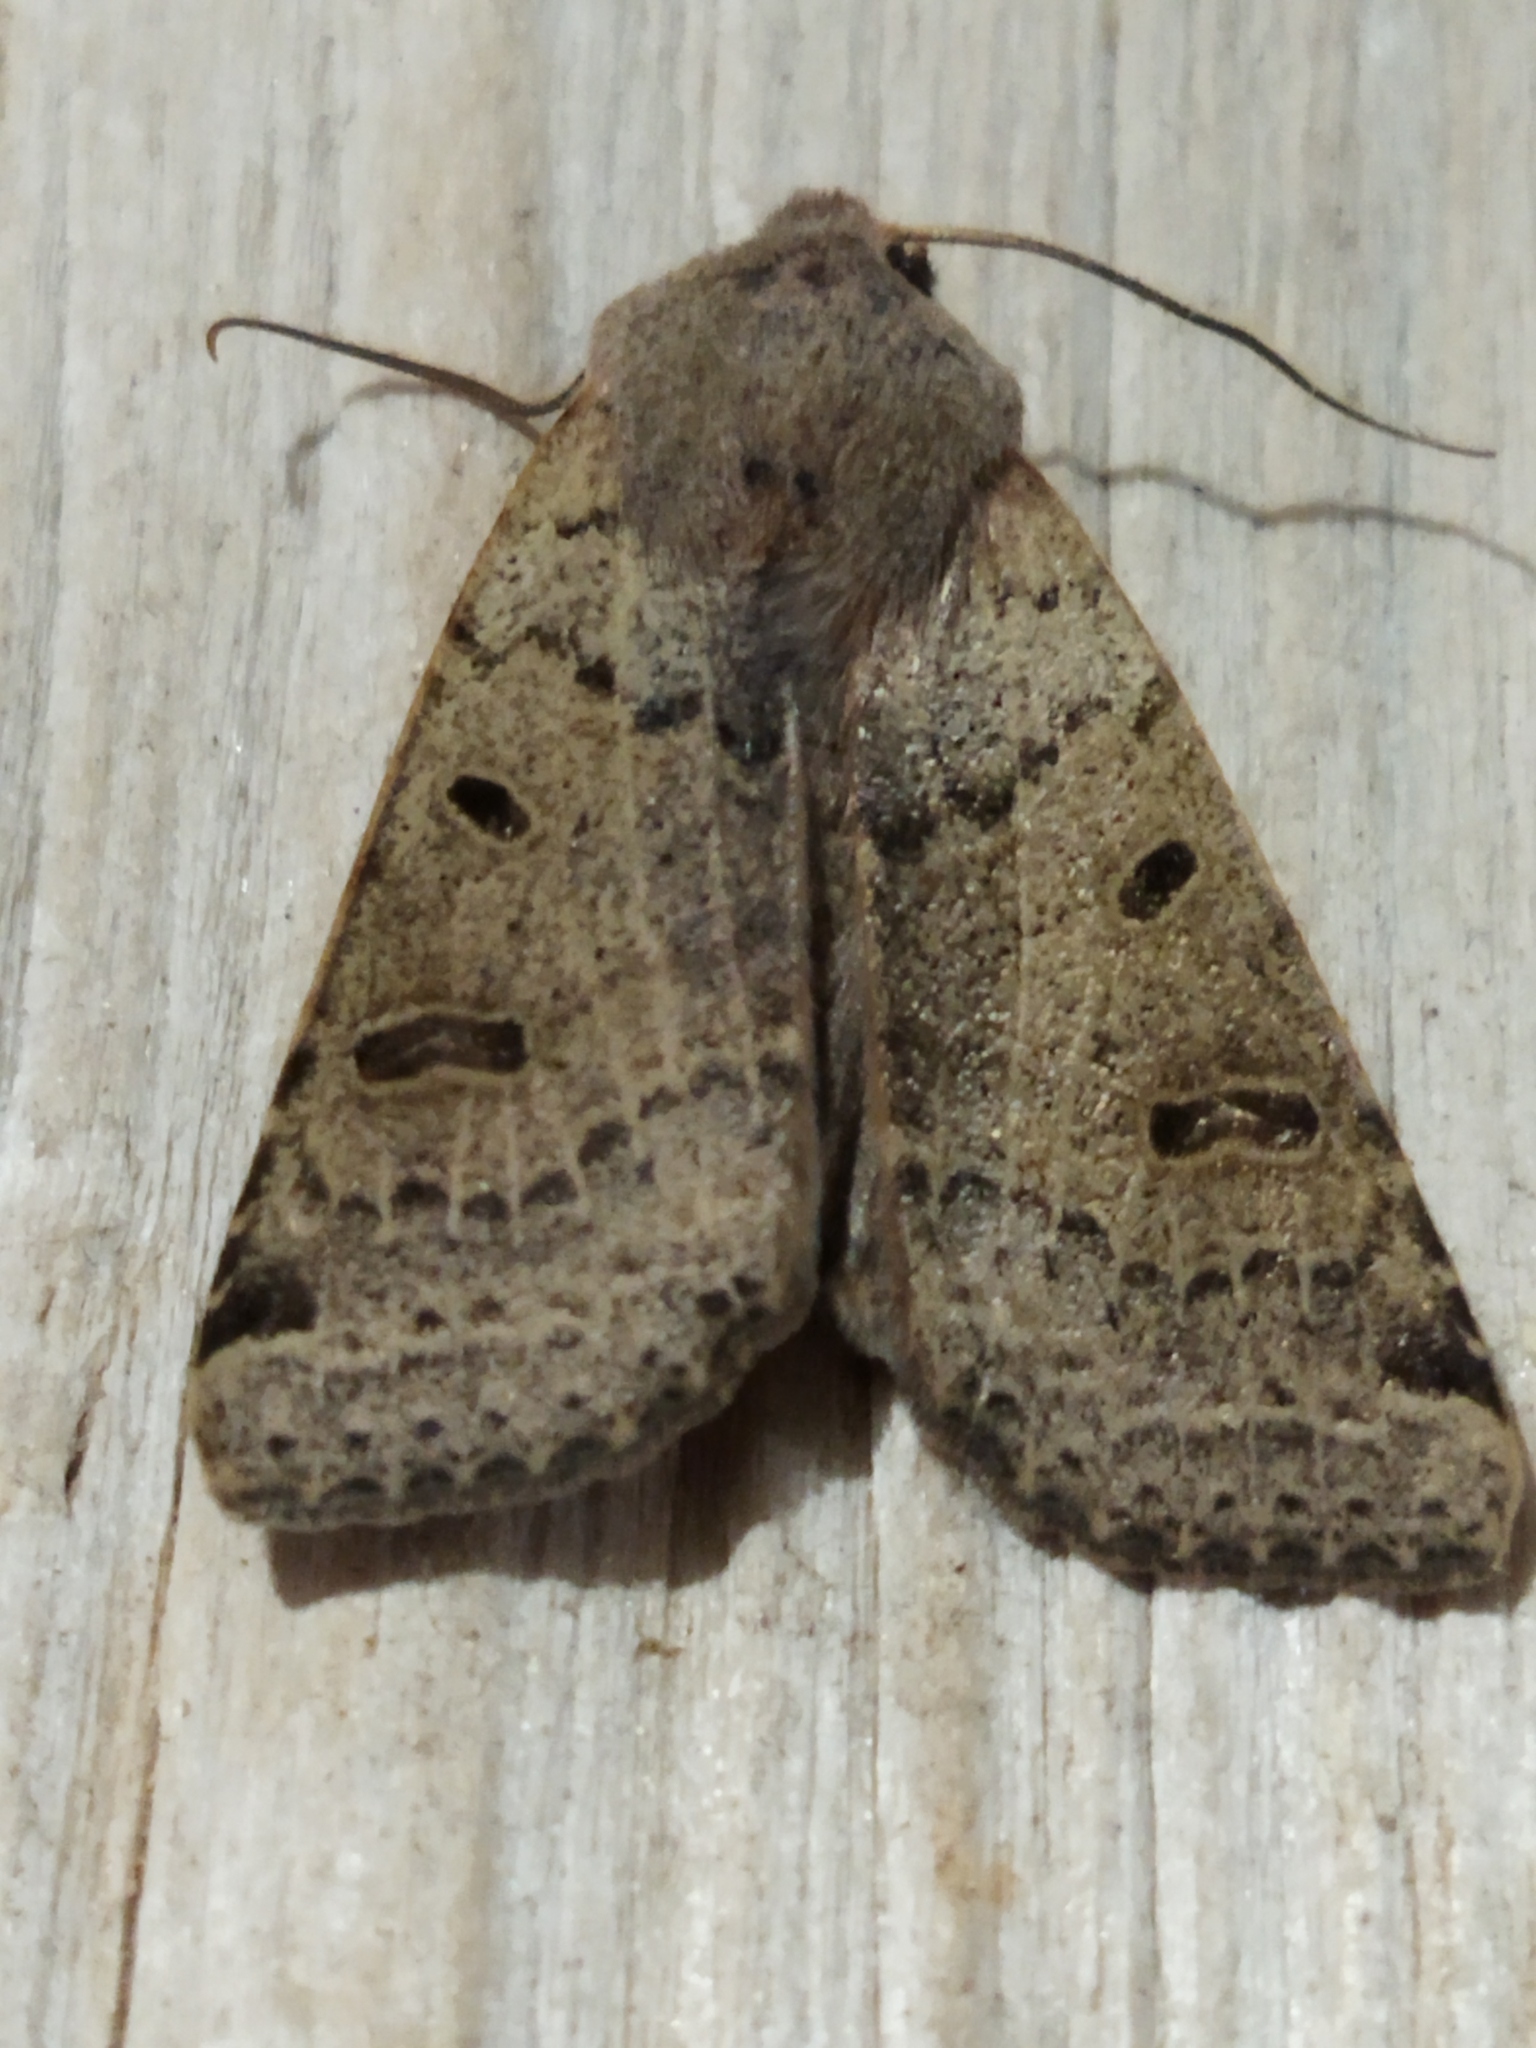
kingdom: Animalia
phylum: Arthropoda
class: Insecta
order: Lepidoptera
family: Noctuidae
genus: Agrochola
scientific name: Agrochola lychnidis
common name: Beaded chestnut
